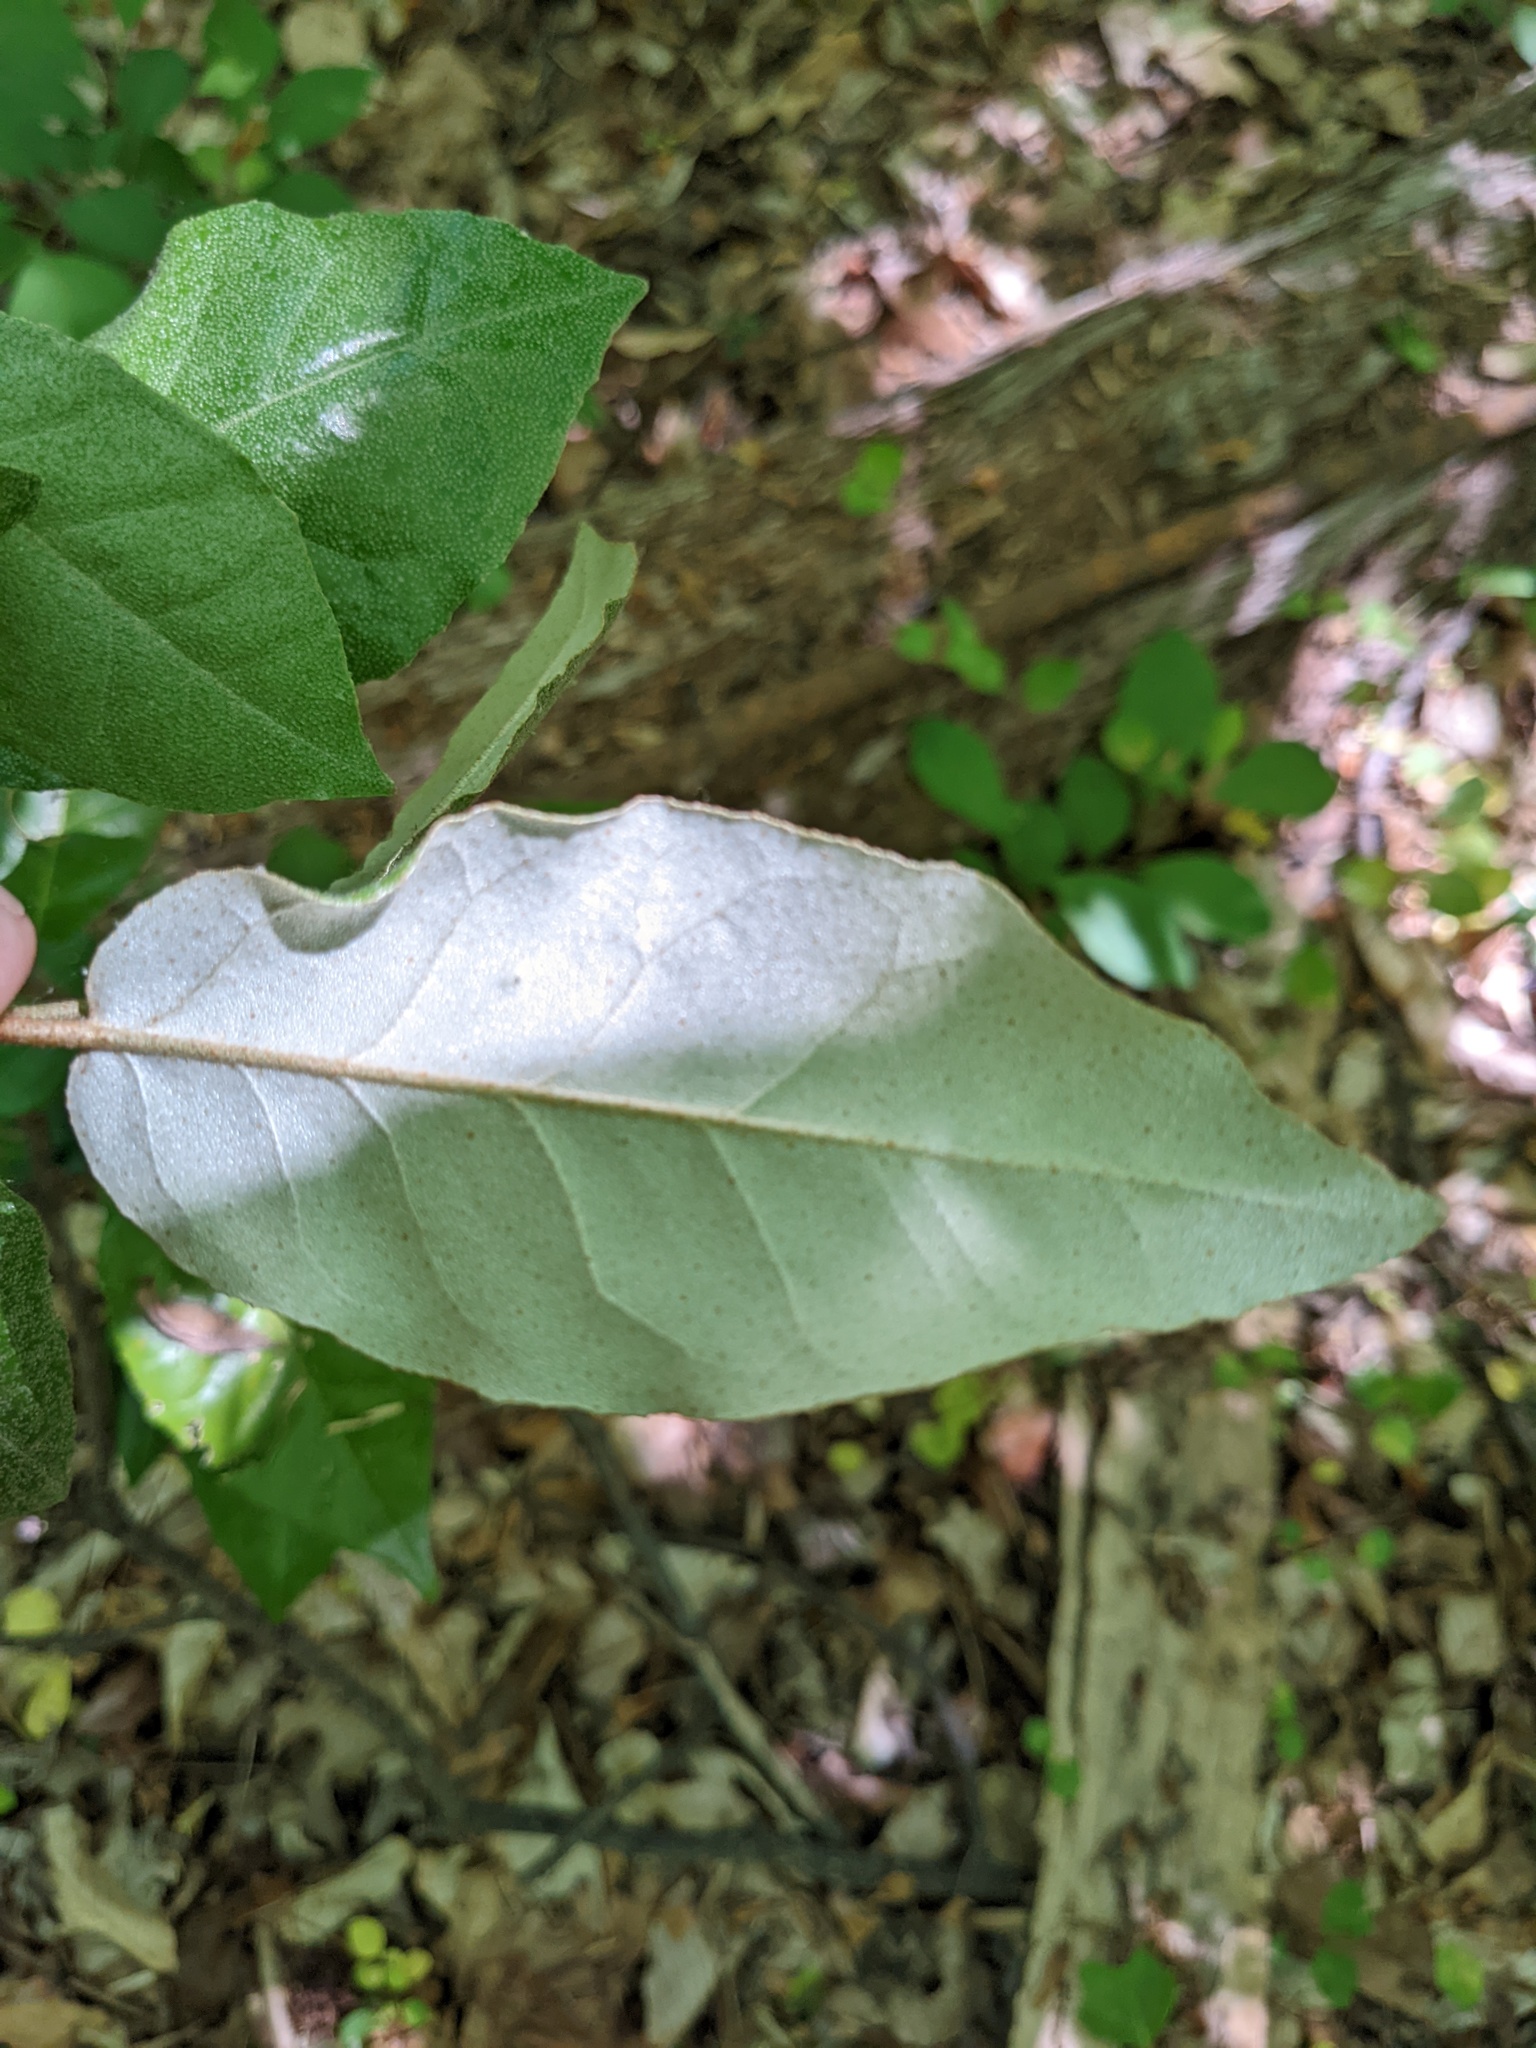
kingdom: Plantae
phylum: Tracheophyta
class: Magnoliopsida
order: Rosales
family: Elaeagnaceae
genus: Elaeagnus
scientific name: Elaeagnus pungens
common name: Spiny oleaster
